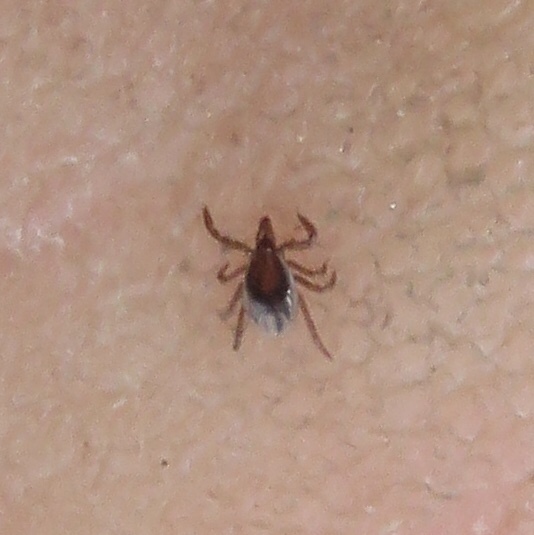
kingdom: Animalia
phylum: Arthropoda
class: Arachnida
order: Ixodida
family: Ixodidae
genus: Ixodes
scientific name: Ixodes scapularis
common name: Black legged tick
